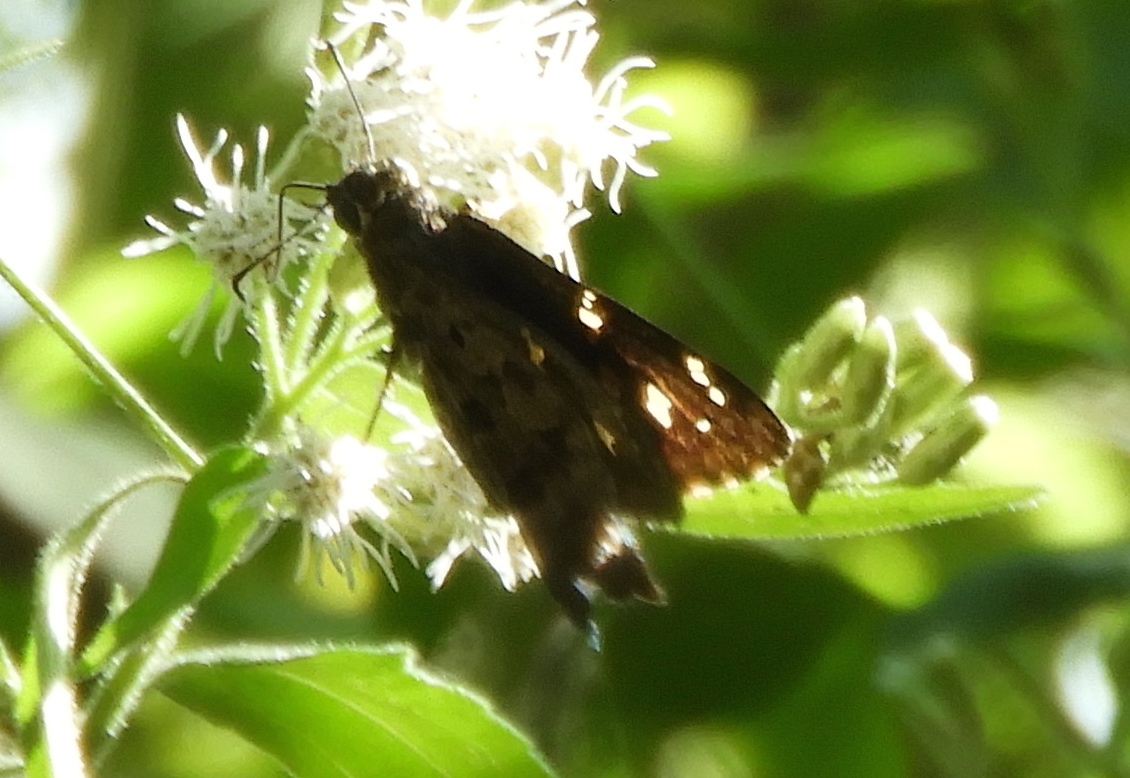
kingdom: Animalia
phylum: Arthropoda
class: Insecta
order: Lepidoptera
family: Hesperiidae
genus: Thorybes
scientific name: Thorybes
